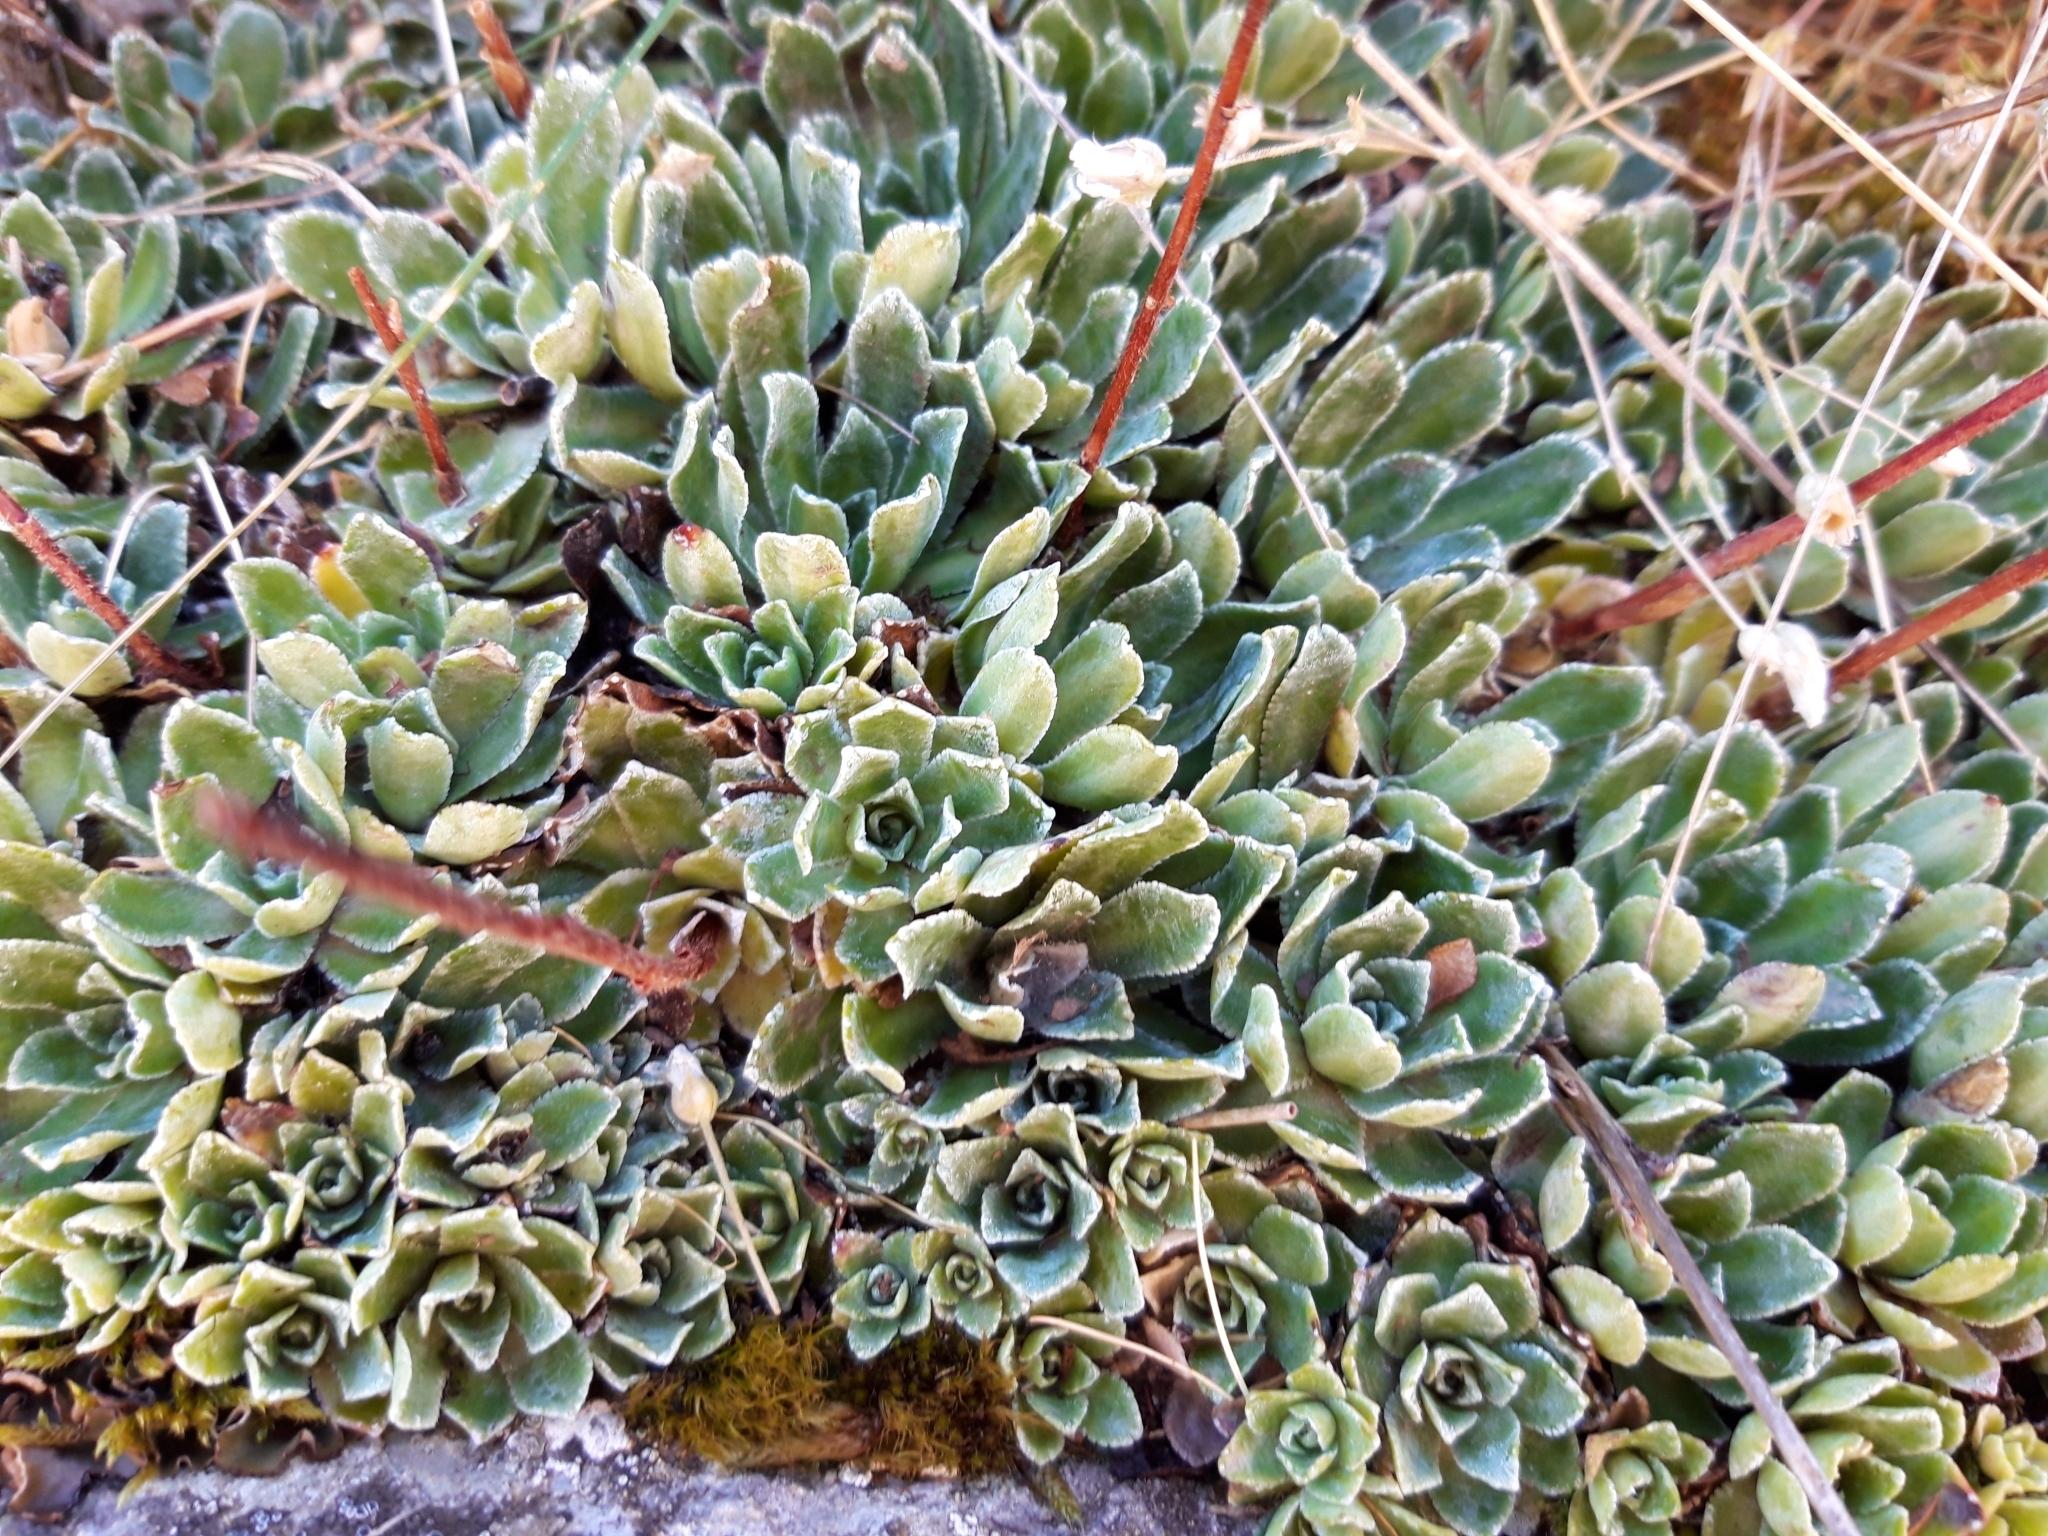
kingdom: Plantae
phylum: Tracheophyta
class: Magnoliopsida
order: Saxifragales
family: Saxifragaceae
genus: Saxifraga
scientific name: Saxifraga paniculata
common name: Livelong saxifrage
